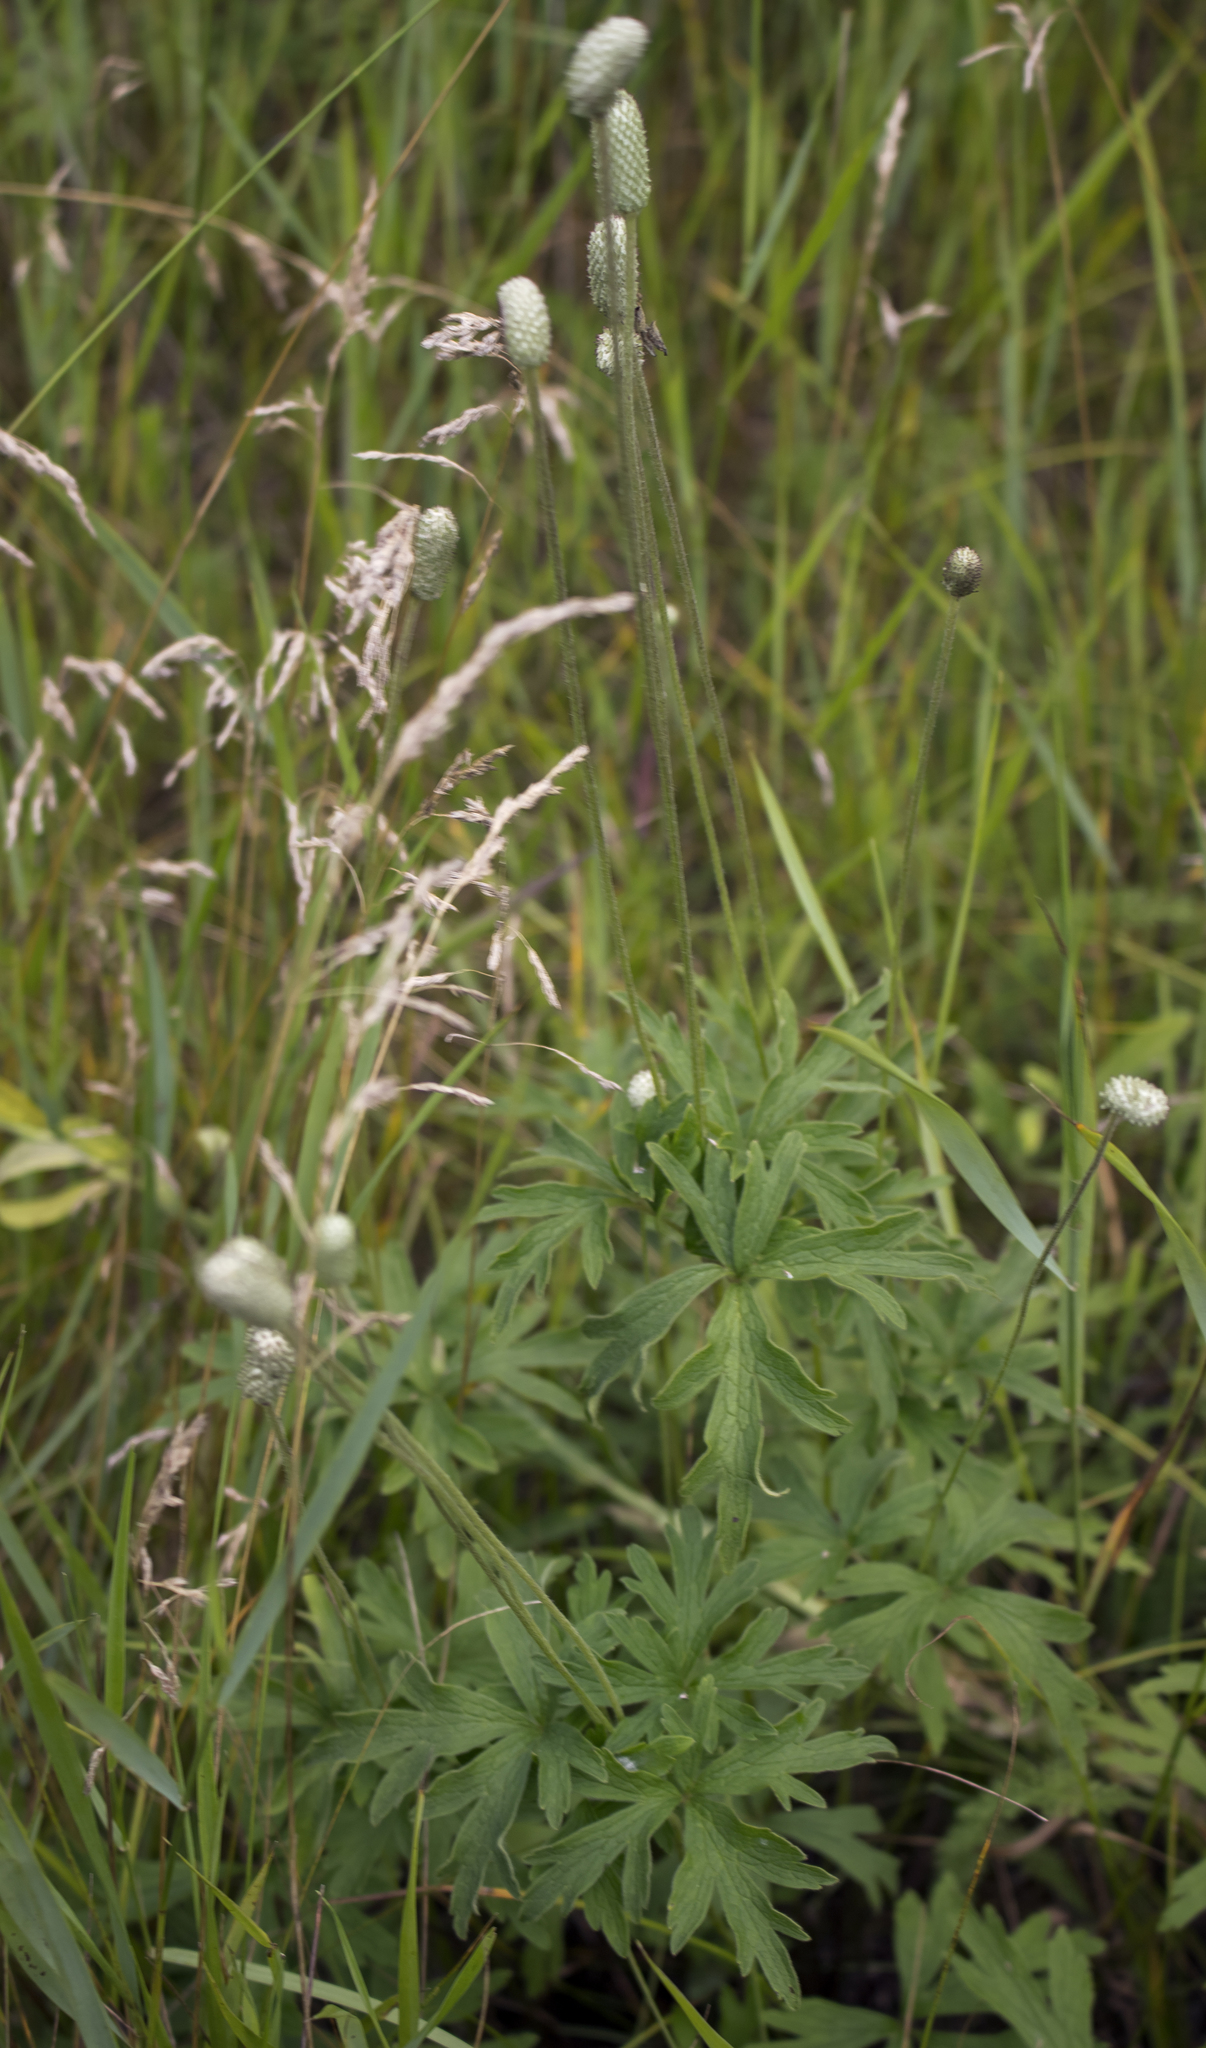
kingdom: Plantae
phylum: Tracheophyta
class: Magnoliopsida
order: Ranunculales
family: Ranunculaceae
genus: Anemone
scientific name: Anemone cylindrica
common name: Candle anemone
